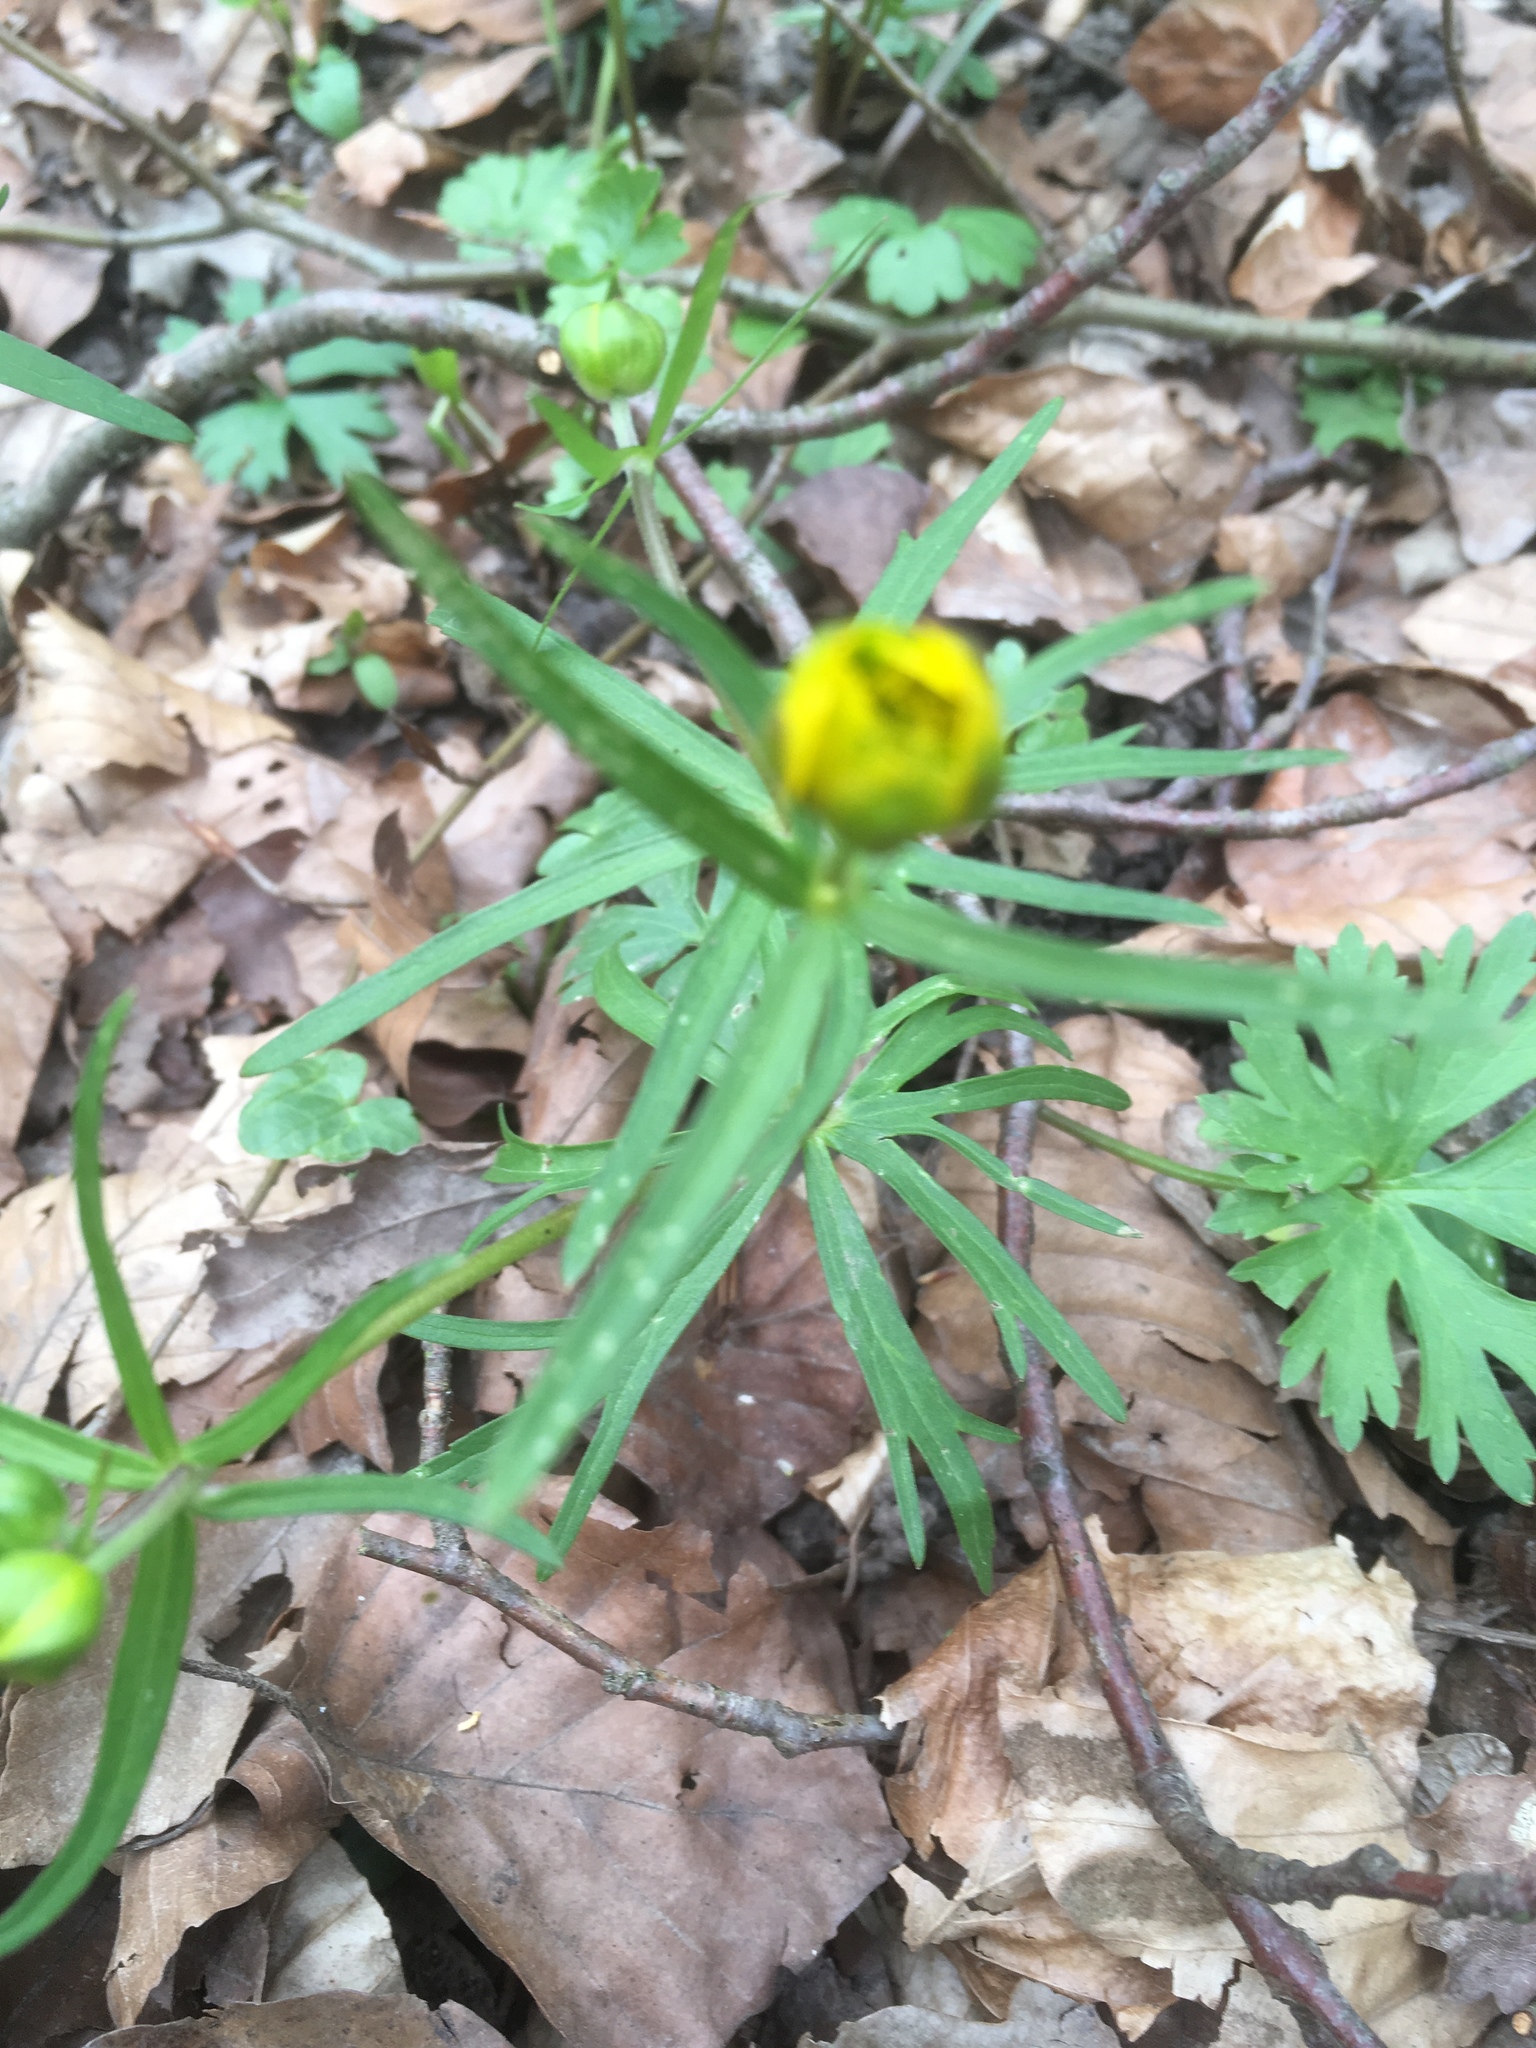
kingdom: Plantae
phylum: Tracheophyta
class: Magnoliopsida
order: Ranunculales
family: Ranunculaceae
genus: Ranunculus
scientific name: Ranunculus auricomus
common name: Goldilocks buttercup
